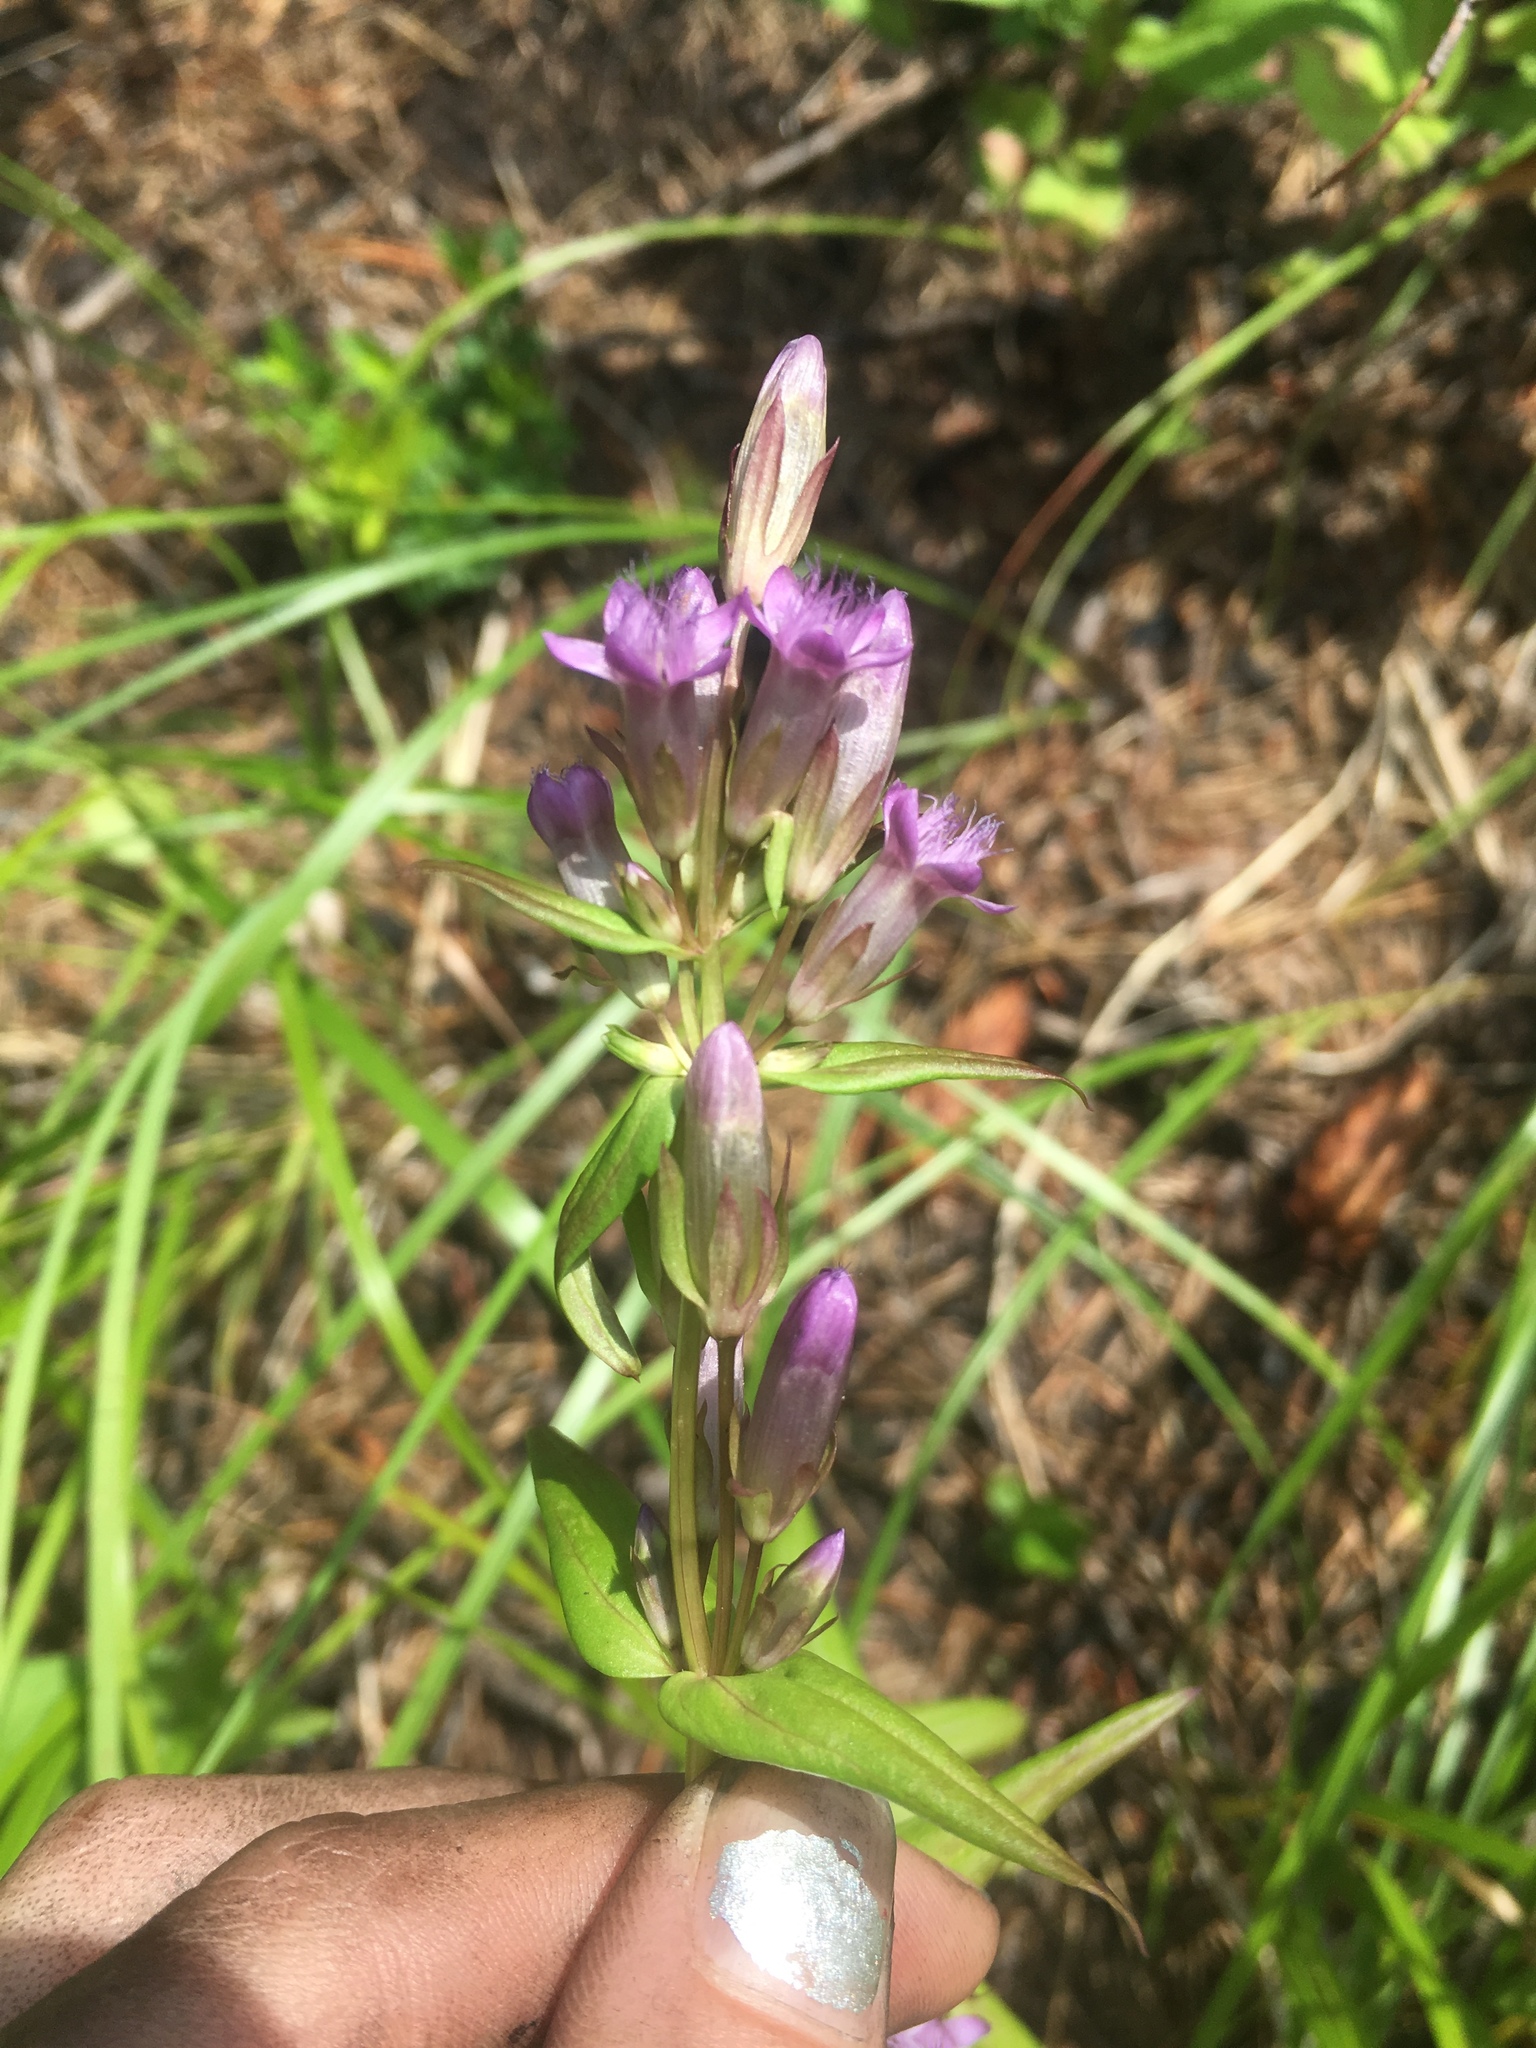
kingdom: Plantae
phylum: Tracheophyta
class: Magnoliopsida
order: Gentianales
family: Gentianaceae
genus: Gentianella
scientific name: Gentianella amarella
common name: Autumn gentian
